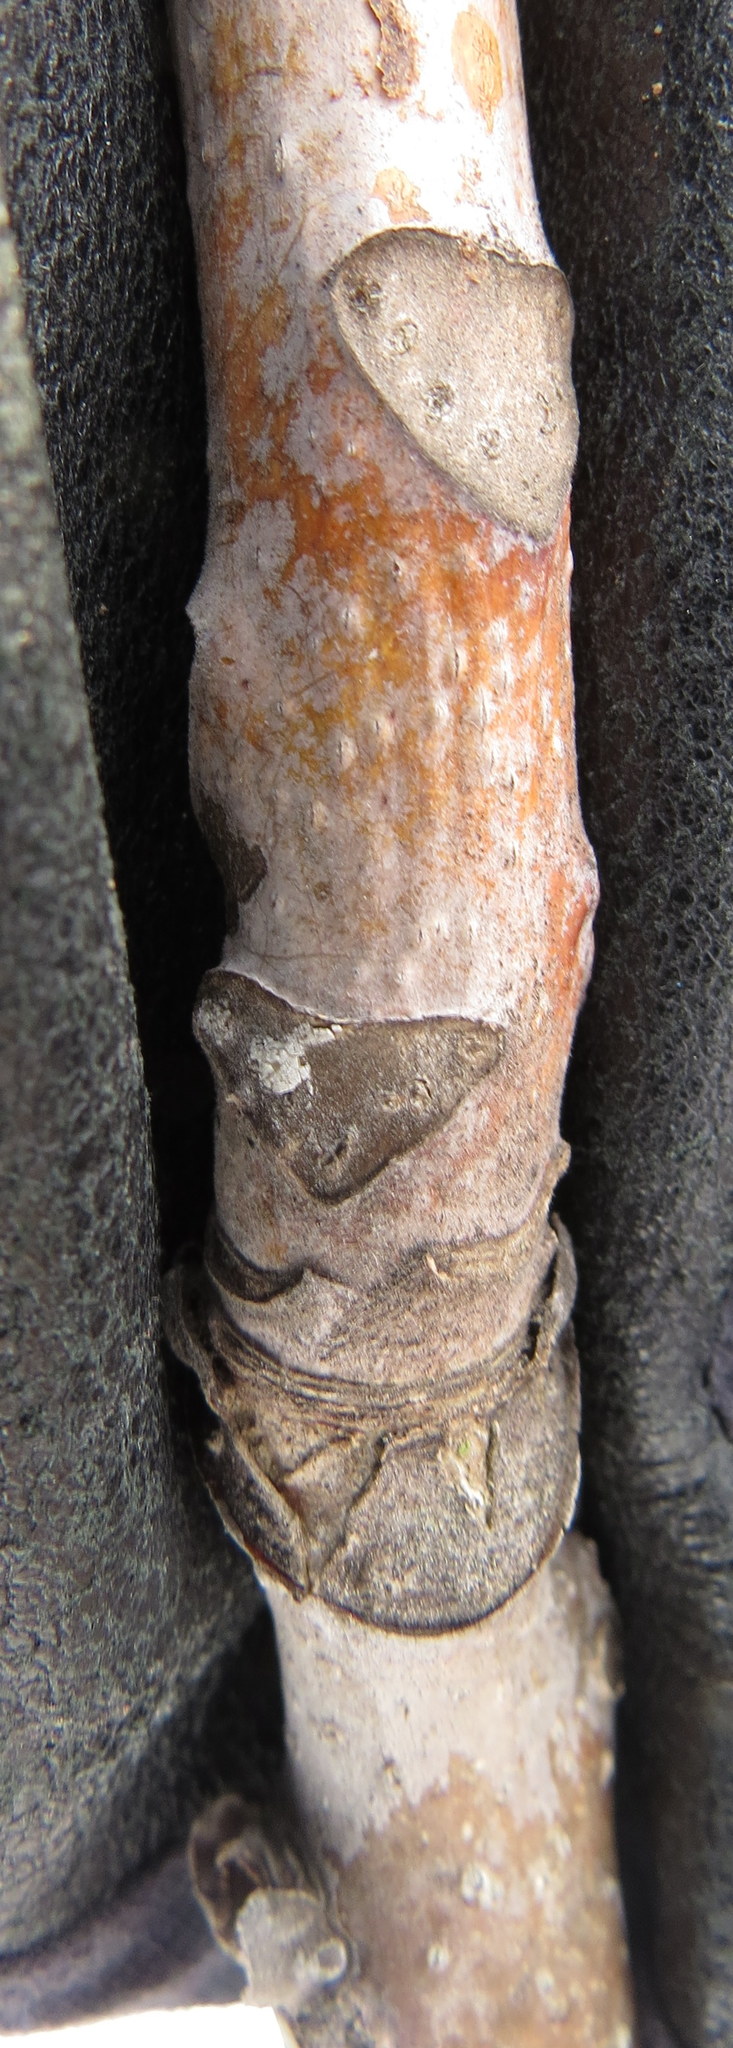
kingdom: Plantae
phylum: Tracheophyta
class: Magnoliopsida
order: Sapindales
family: Simaroubaceae
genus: Ailanthus
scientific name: Ailanthus altissima
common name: Tree-of-heaven
